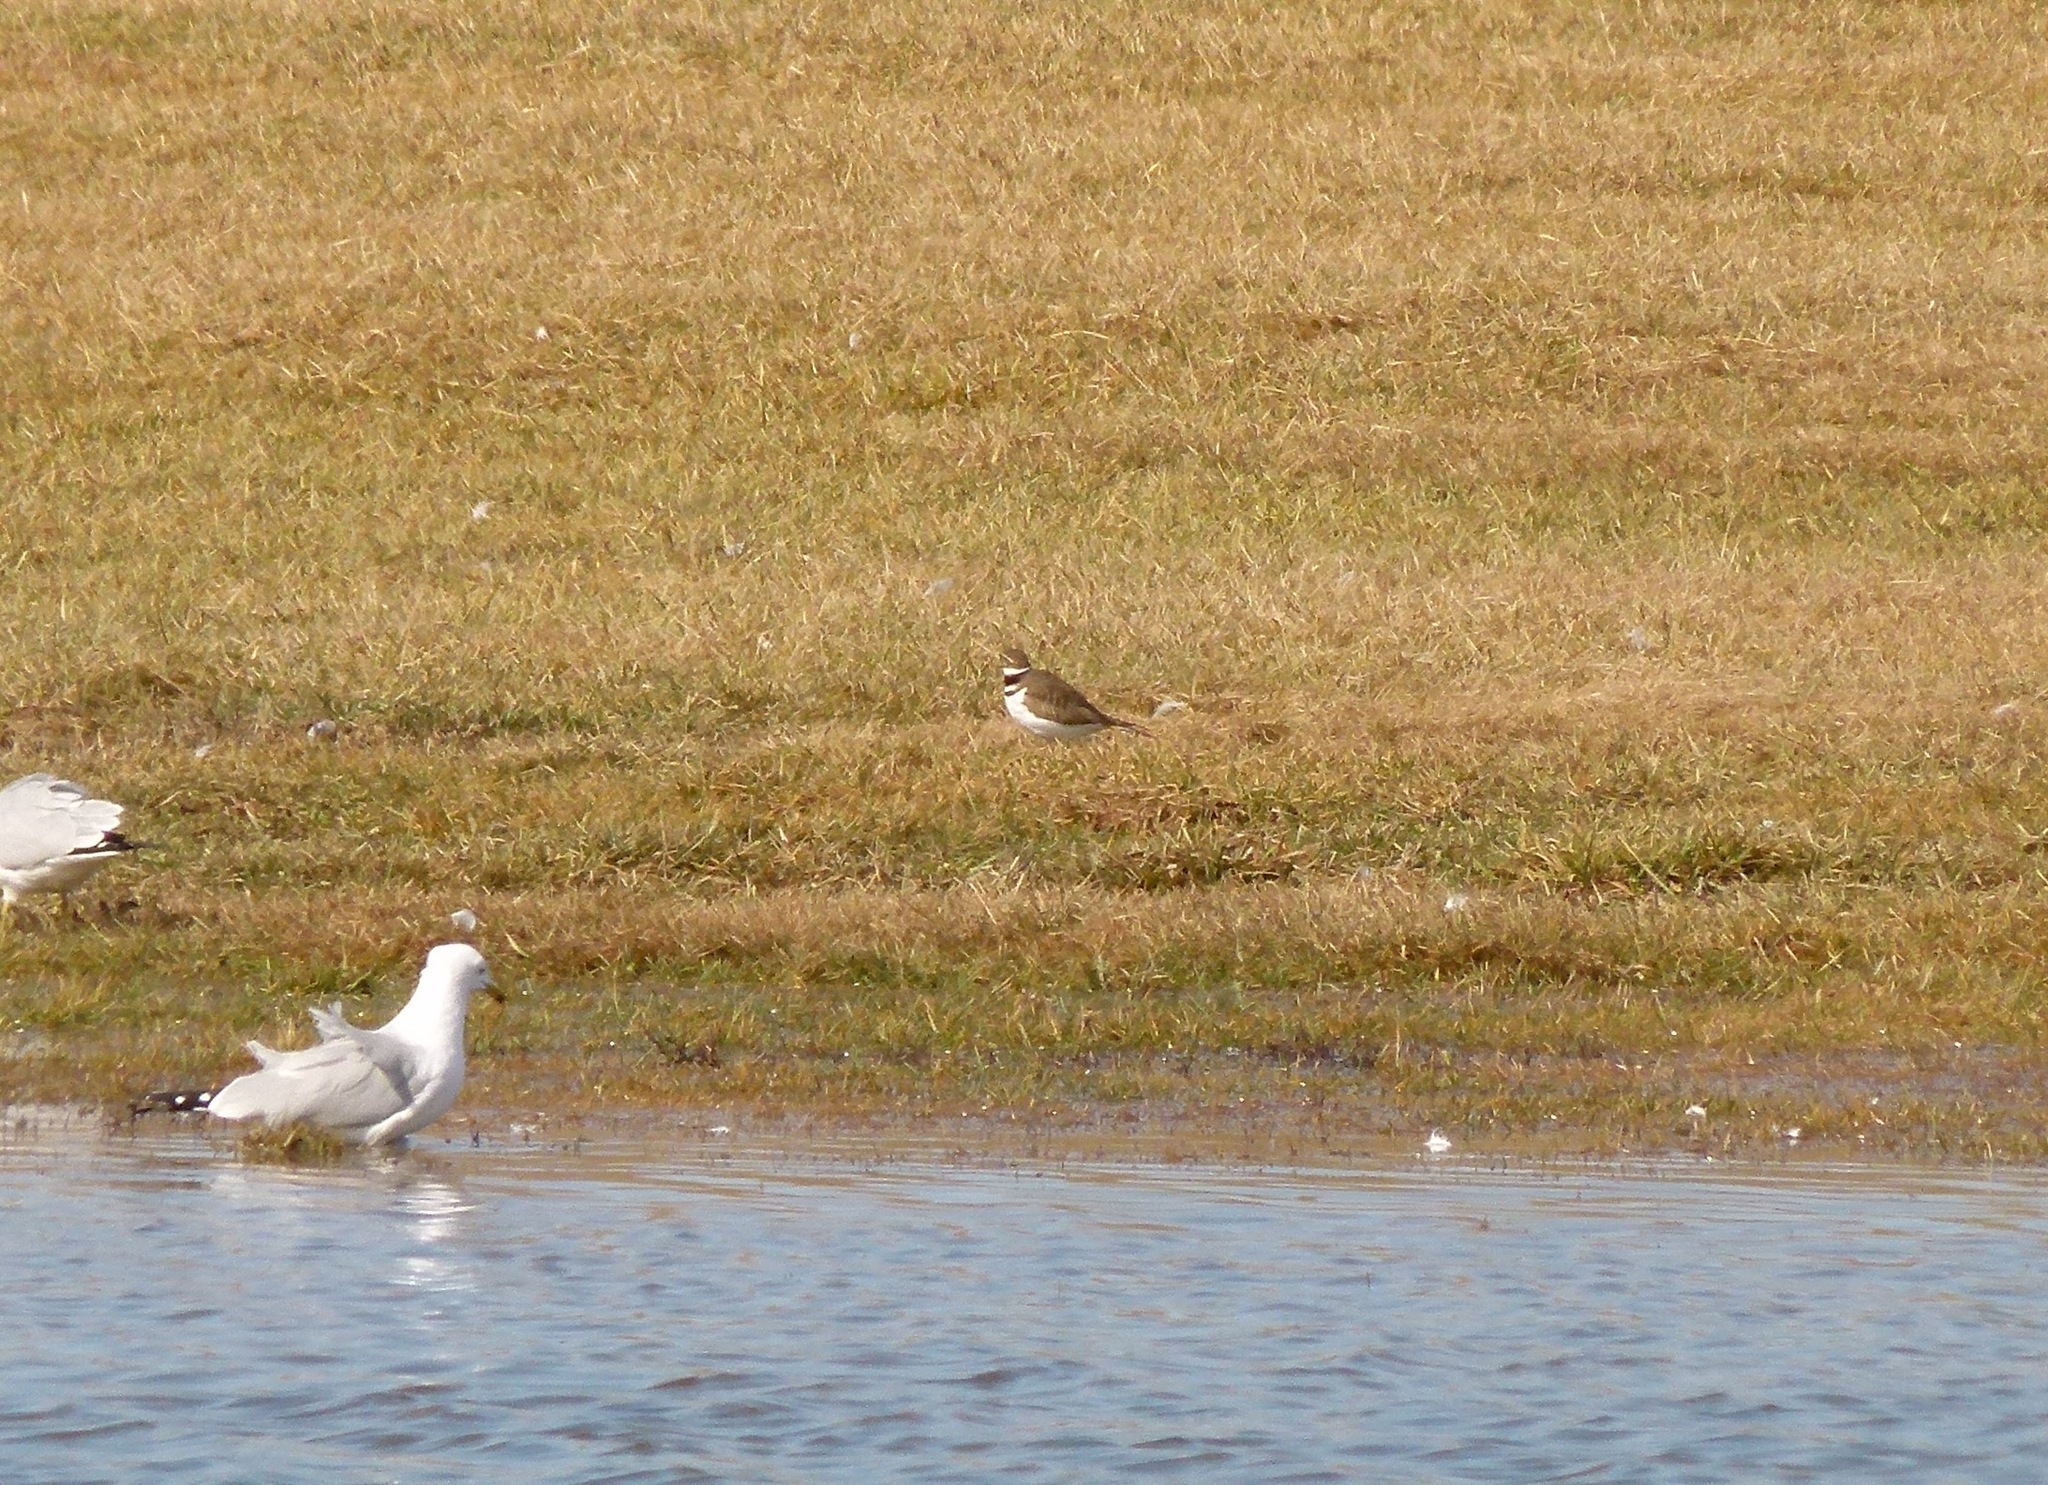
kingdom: Animalia
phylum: Chordata
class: Aves
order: Charadriiformes
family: Charadriidae
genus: Charadrius
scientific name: Charadrius vociferus
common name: Killdeer
